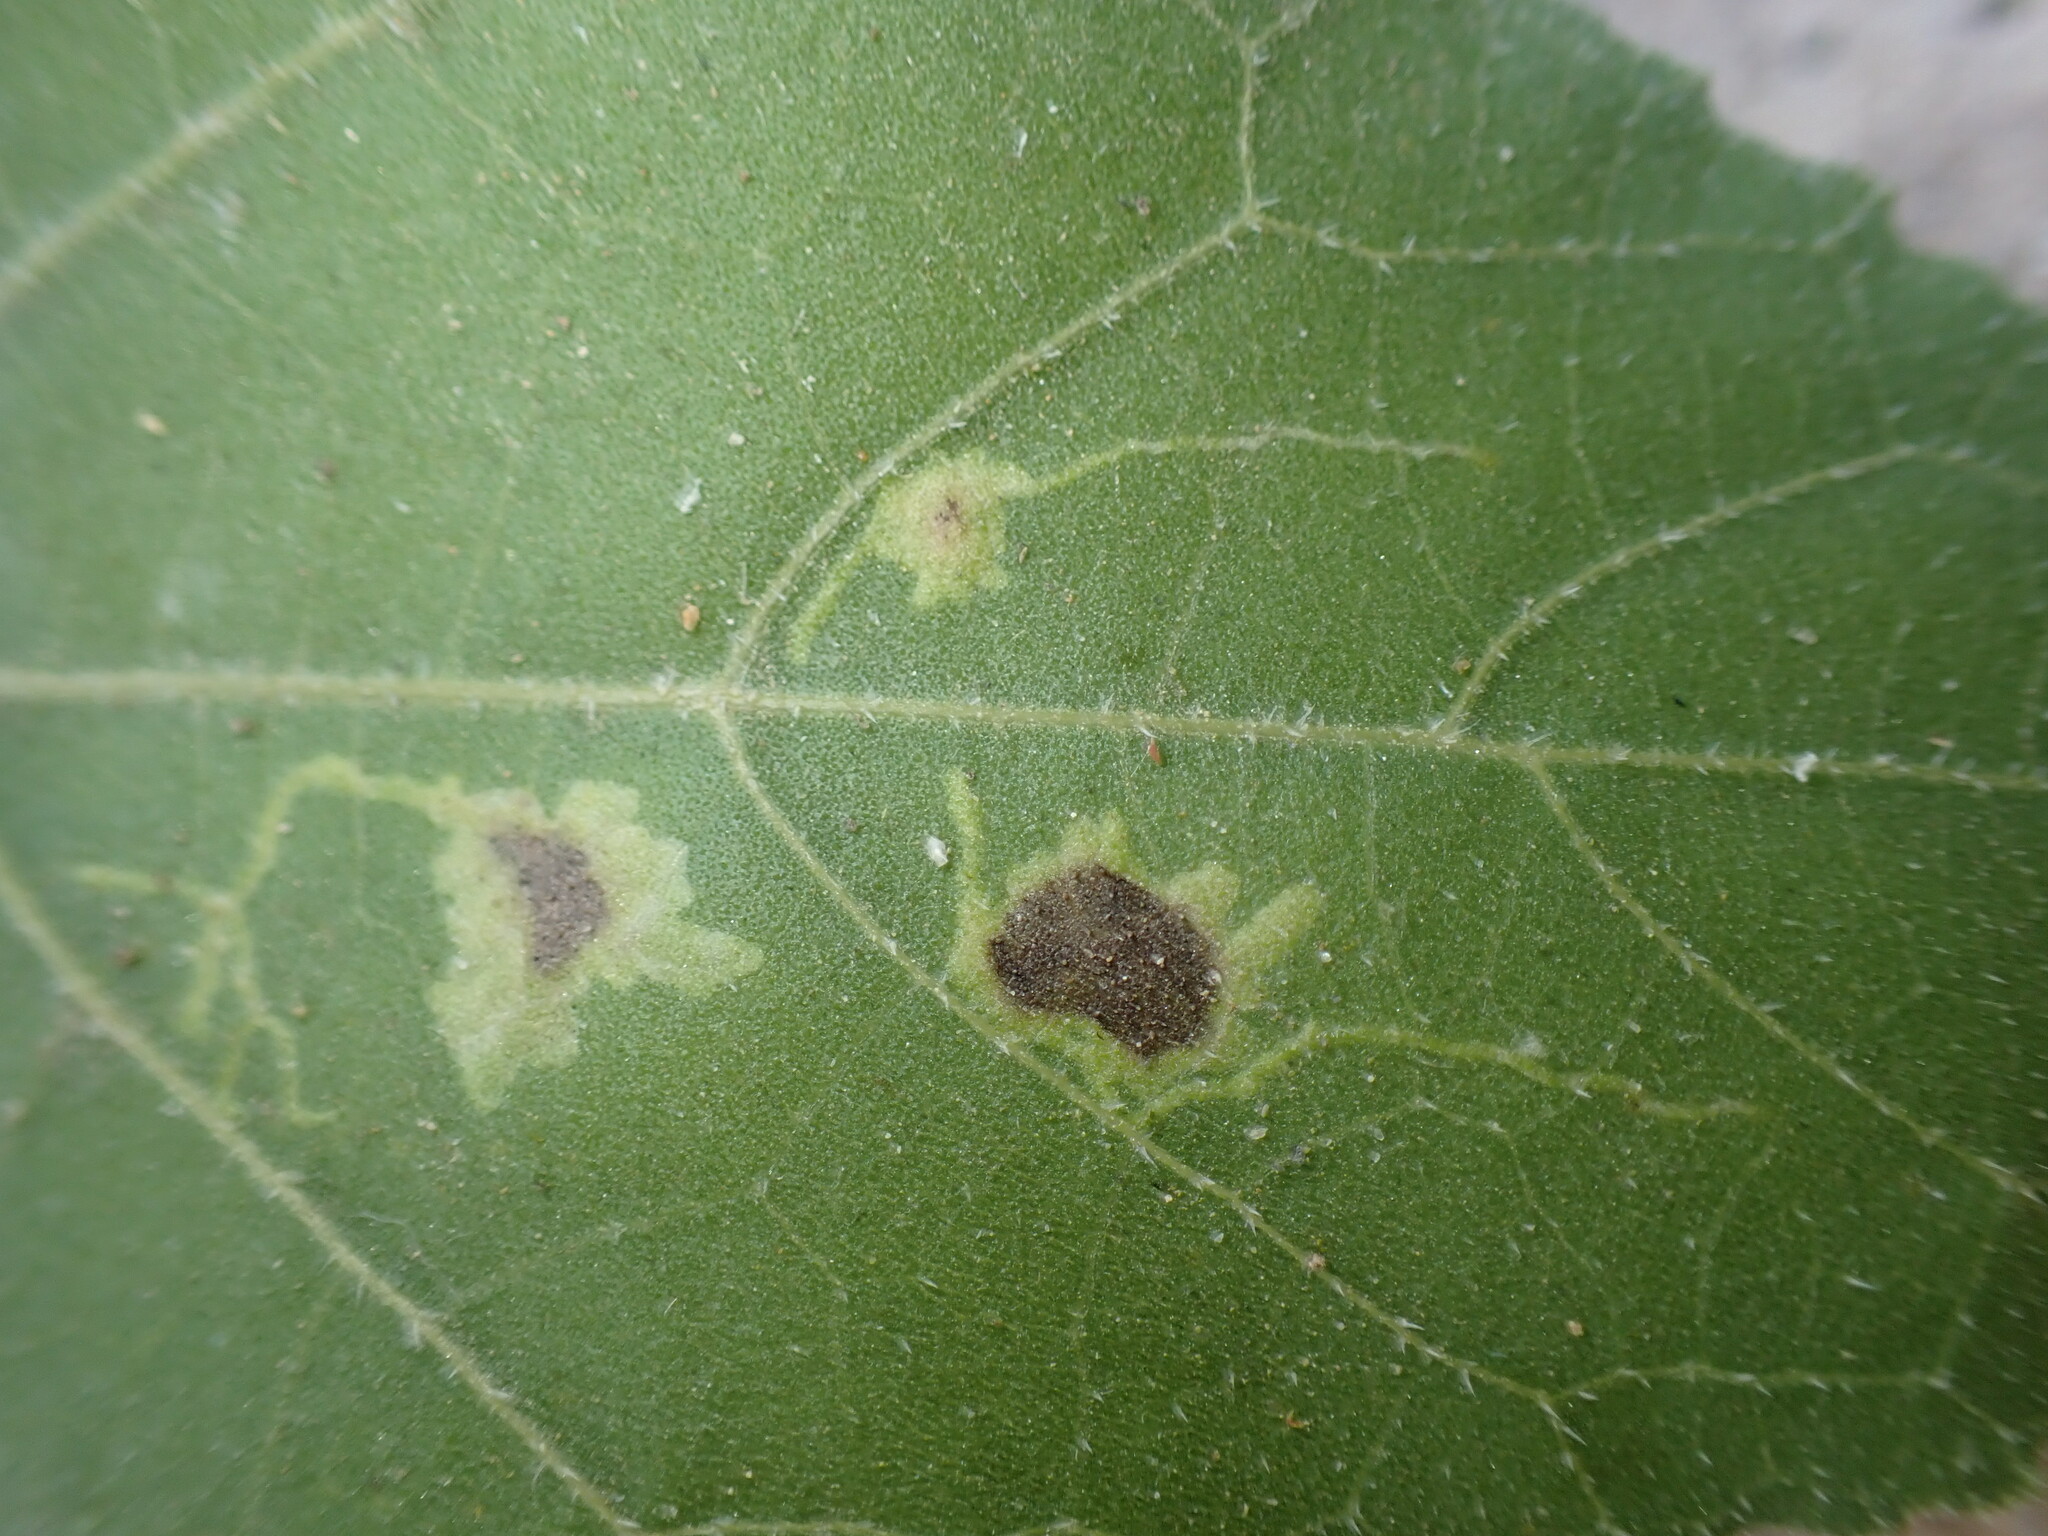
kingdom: Animalia
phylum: Arthropoda
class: Insecta
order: Diptera
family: Agromyzidae
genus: Calycomyza
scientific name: Calycomyza platyptera
